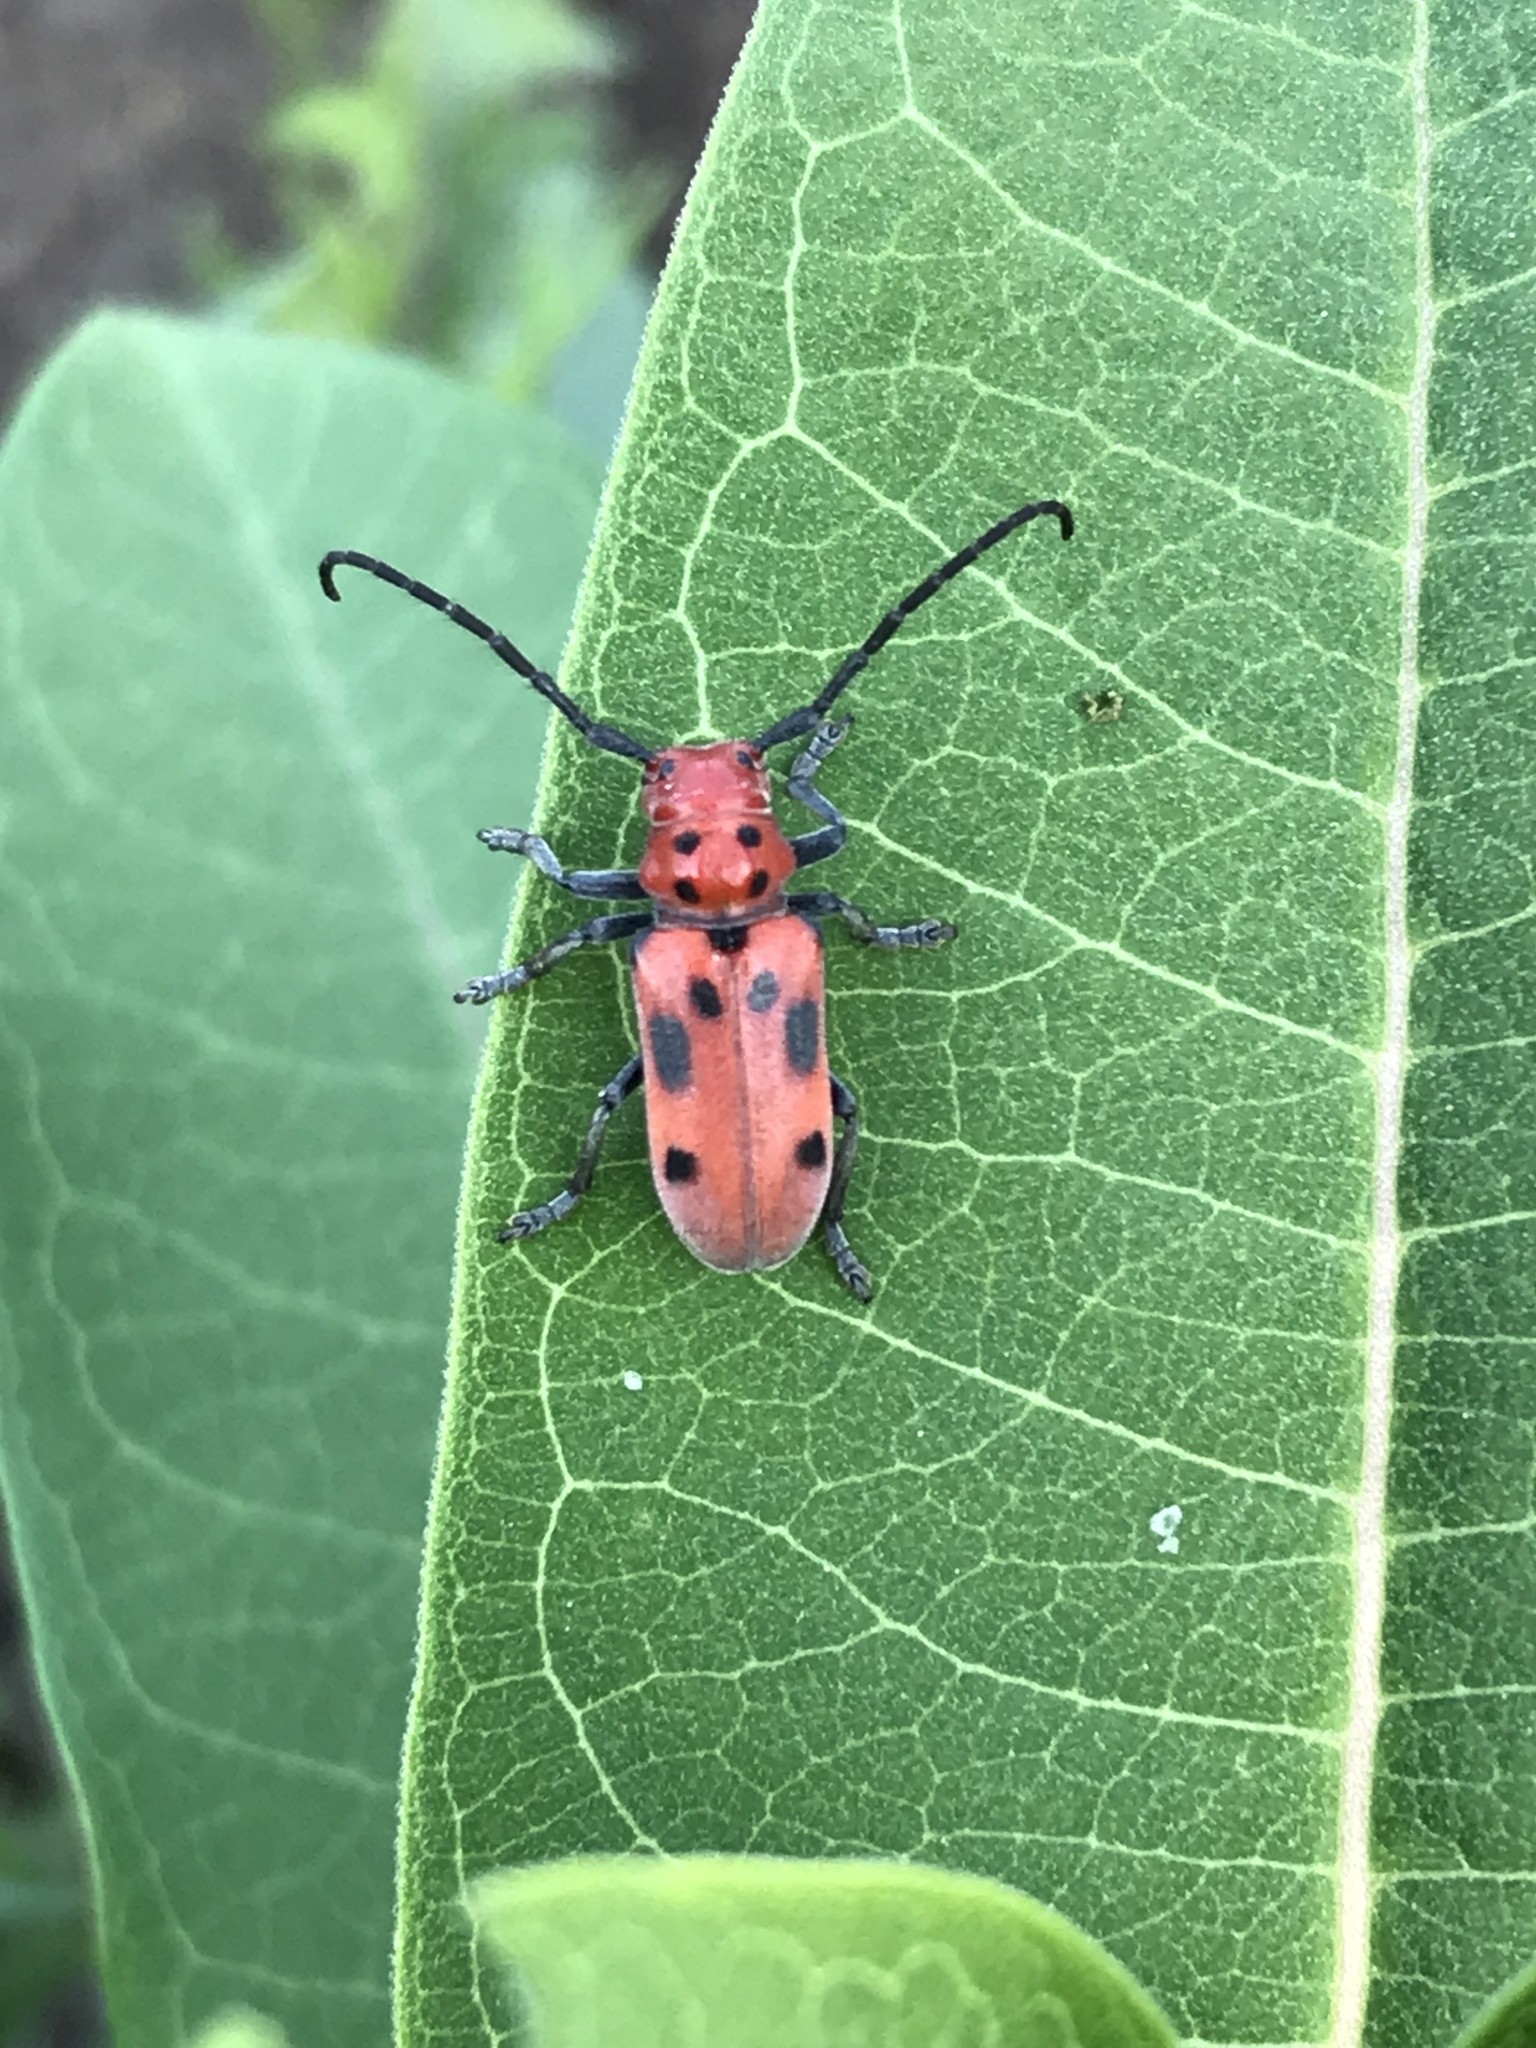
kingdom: Animalia
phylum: Arthropoda
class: Insecta
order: Coleoptera
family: Cerambycidae
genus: Tetraopes
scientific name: Tetraopes tetrophthalmus
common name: Red milkweed beetle
